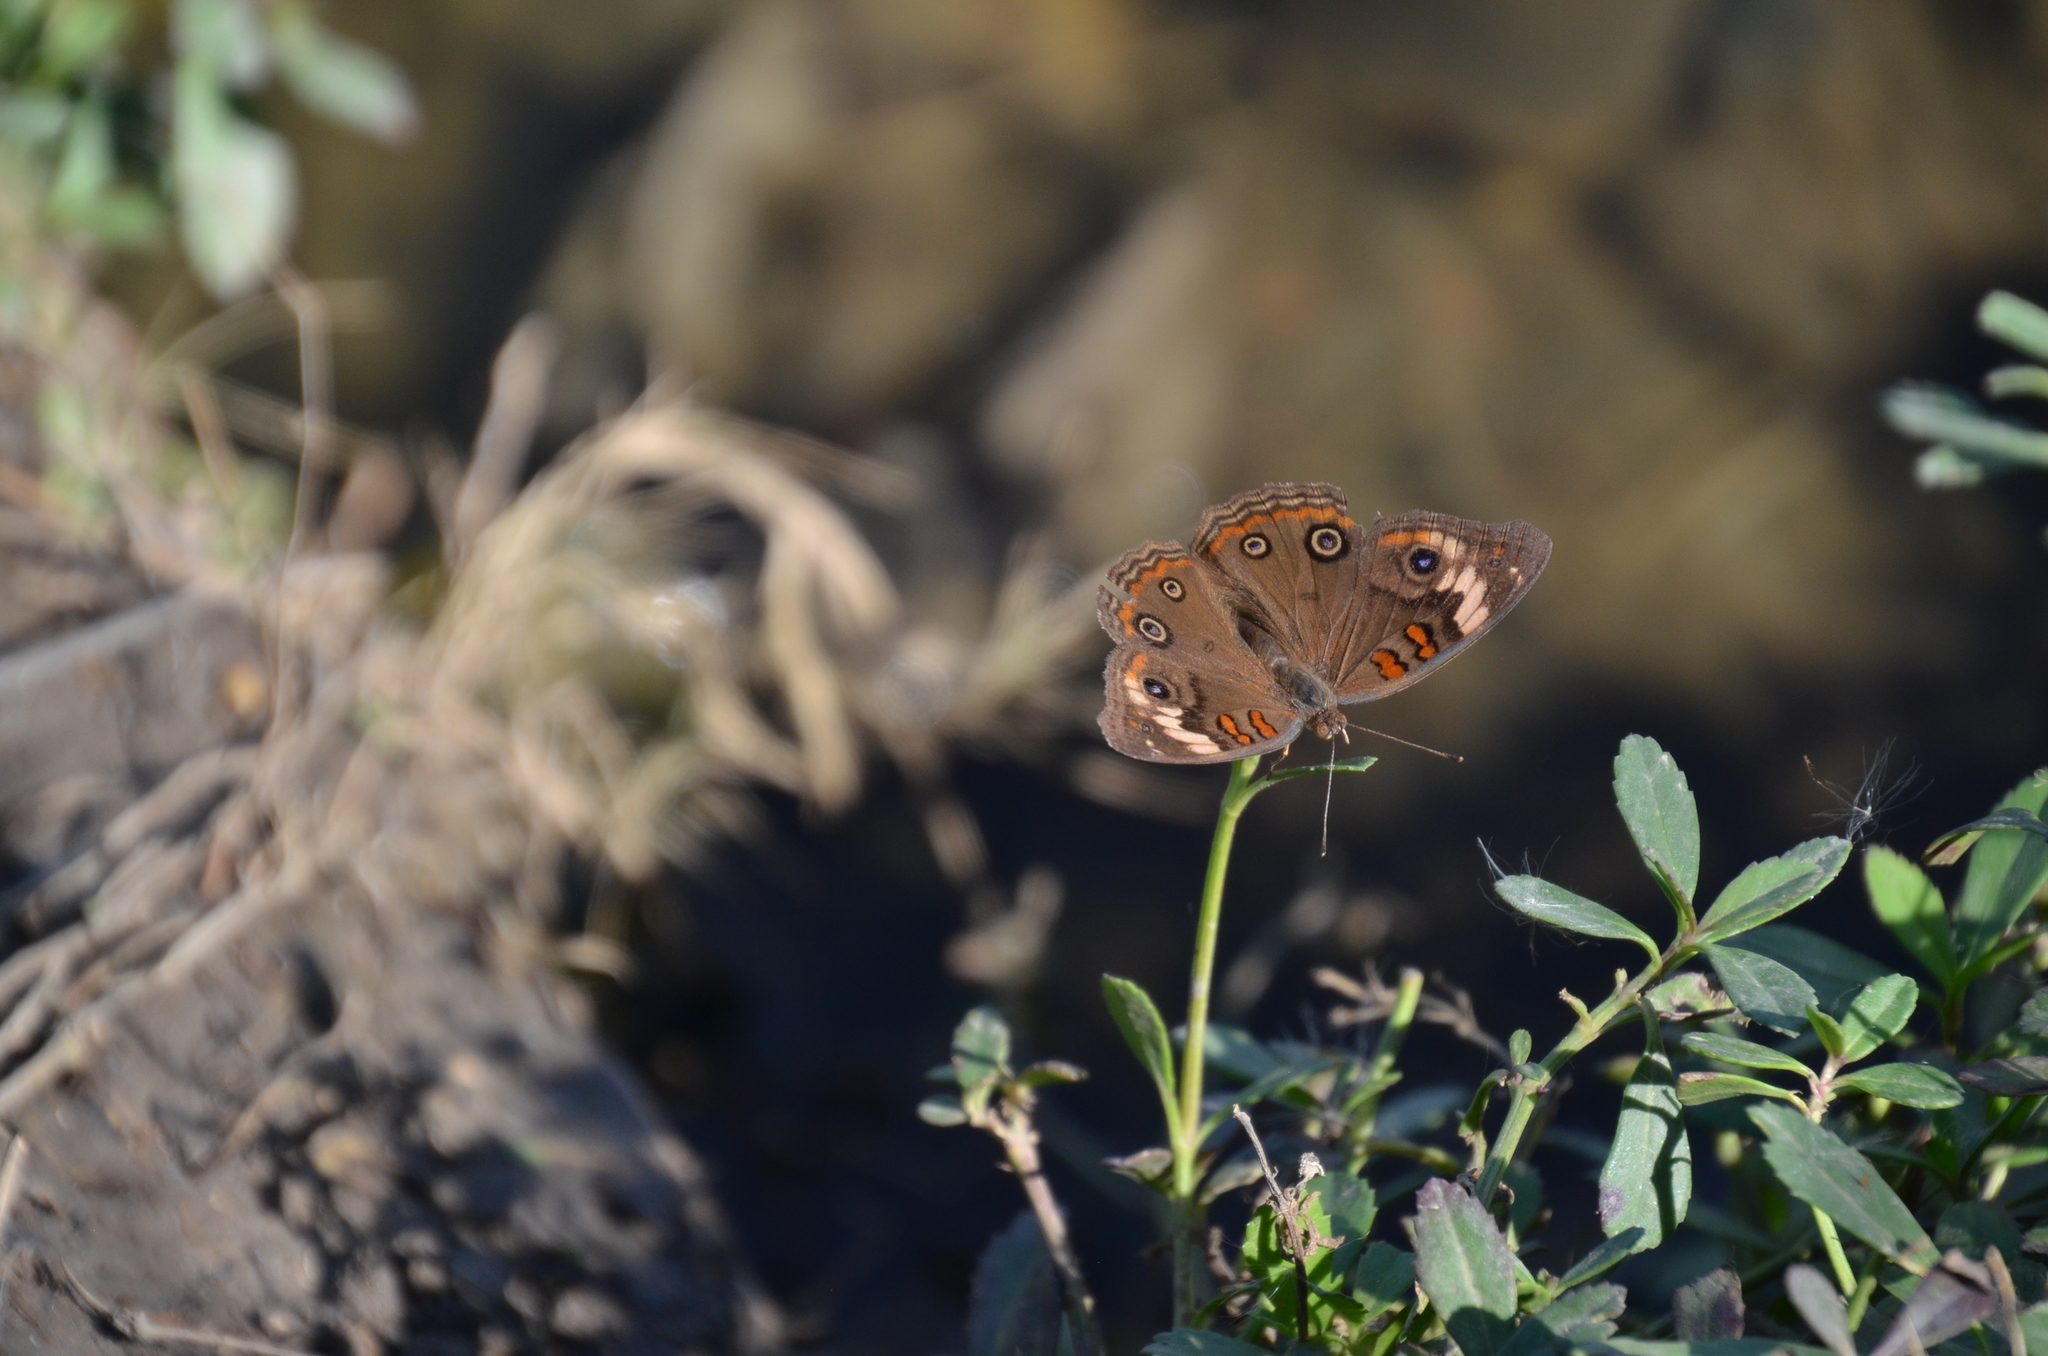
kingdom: Animalia
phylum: Arthropoda
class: Insecta
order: Lepidoptera
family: Nymphalidae
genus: Junonia
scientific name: Junonia pacoma
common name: Pacific mangrove buckeye
